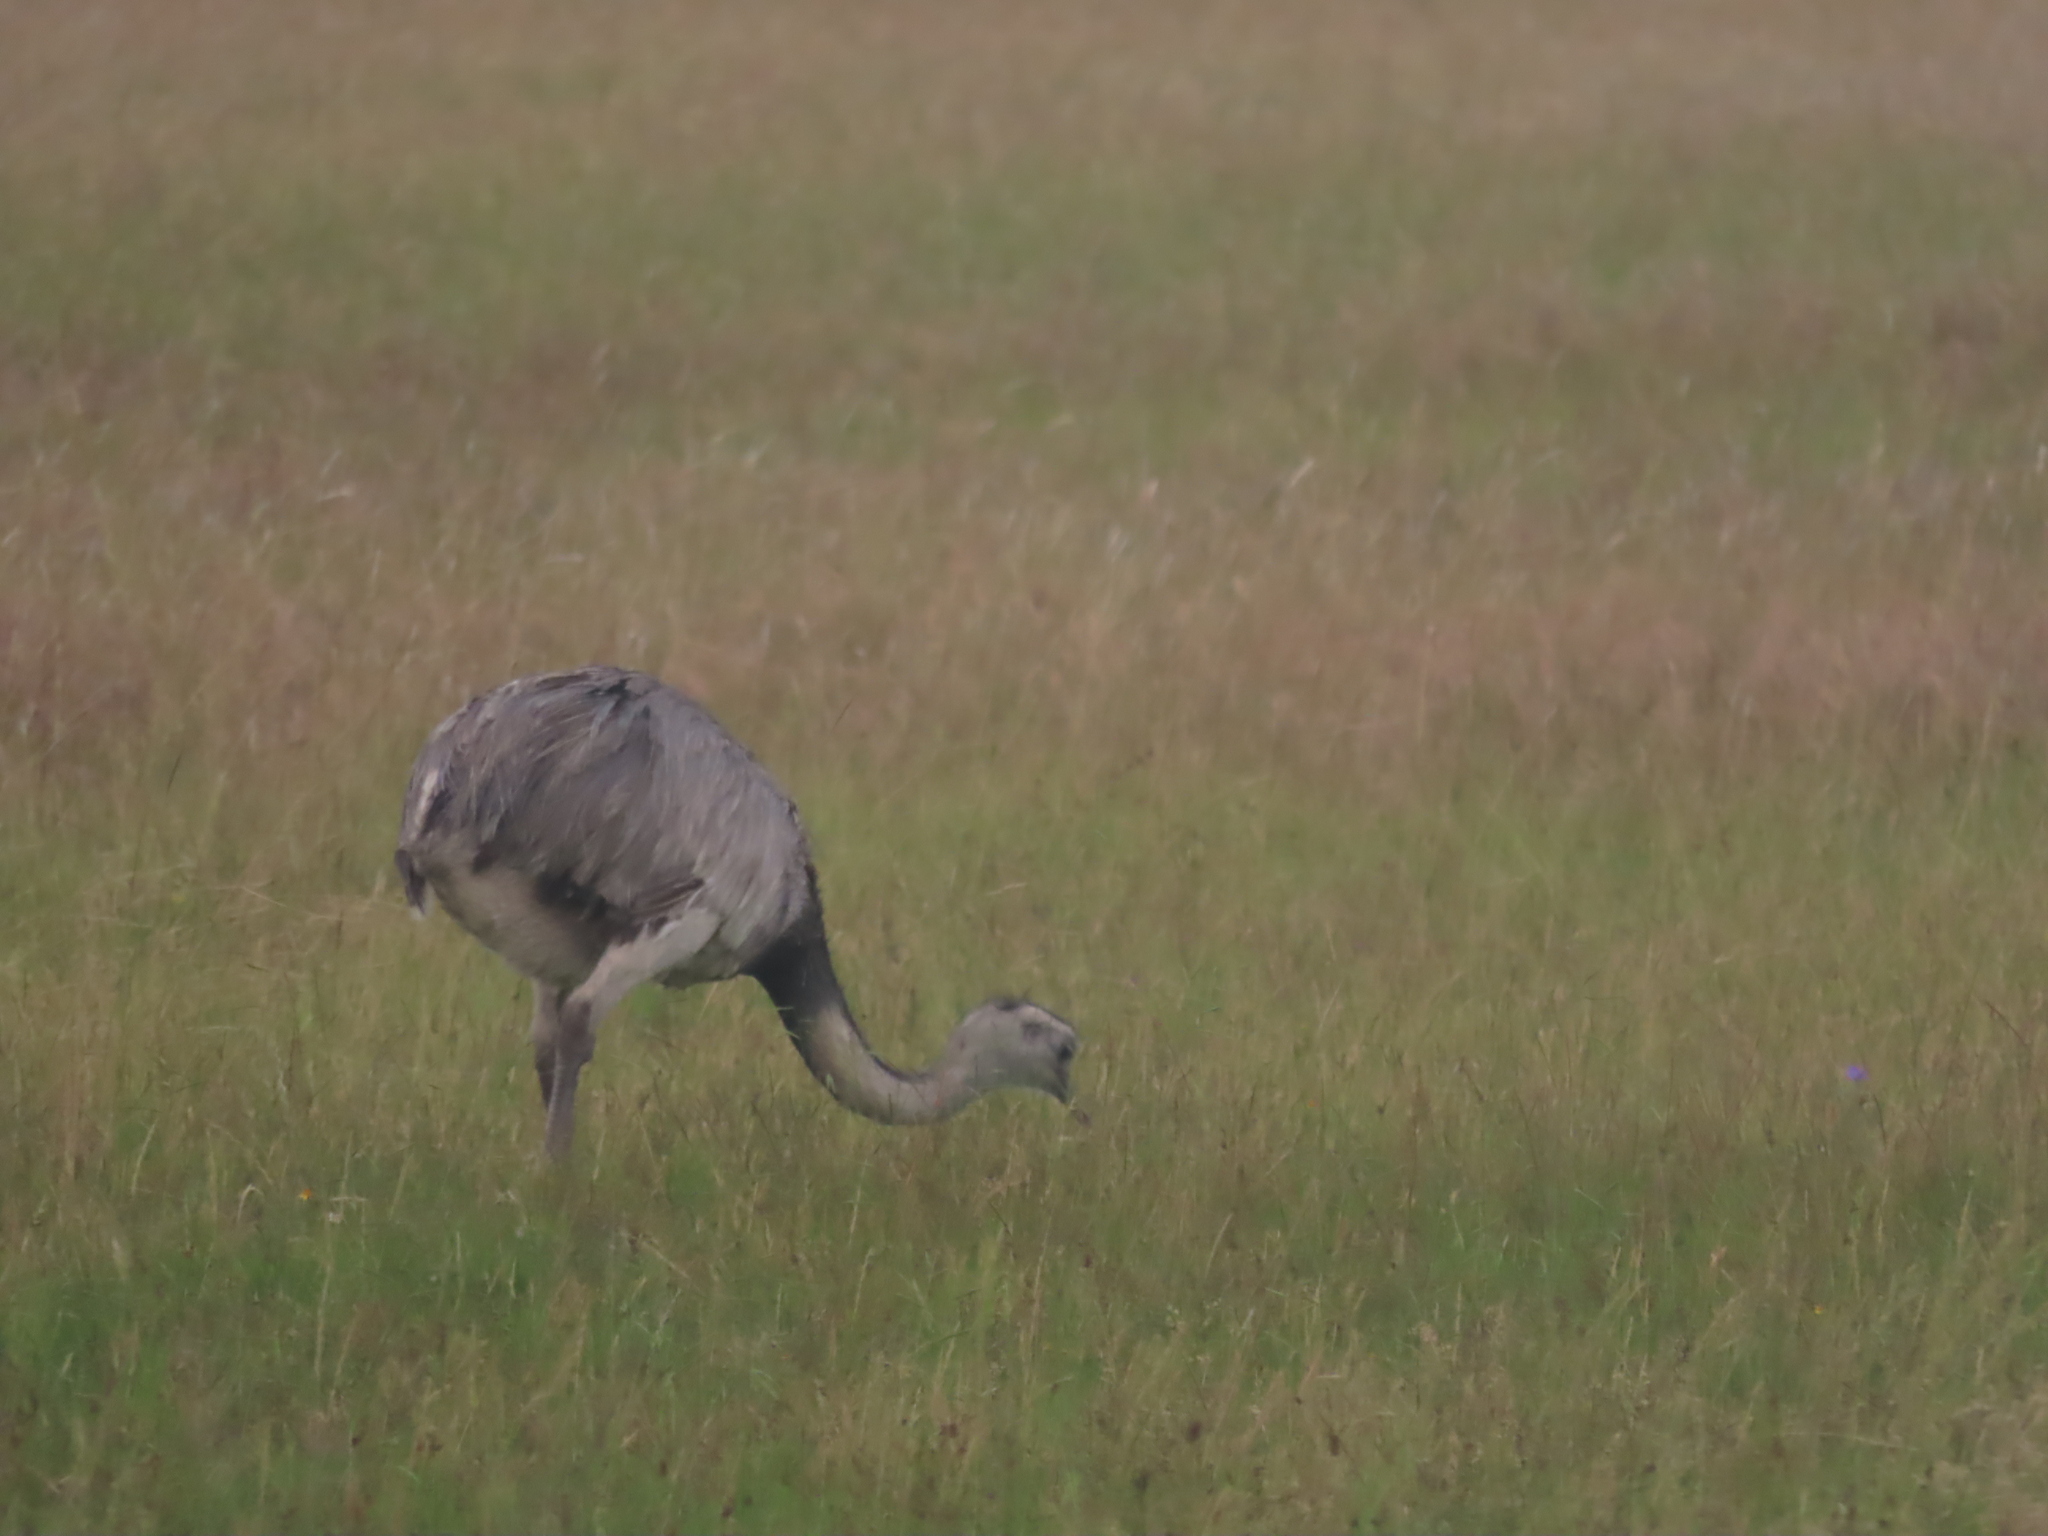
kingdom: Animalia
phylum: Chordata
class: Aves
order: Rheiformes
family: Rheidae
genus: Rhea
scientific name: Rhea americana
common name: Greater rhea
